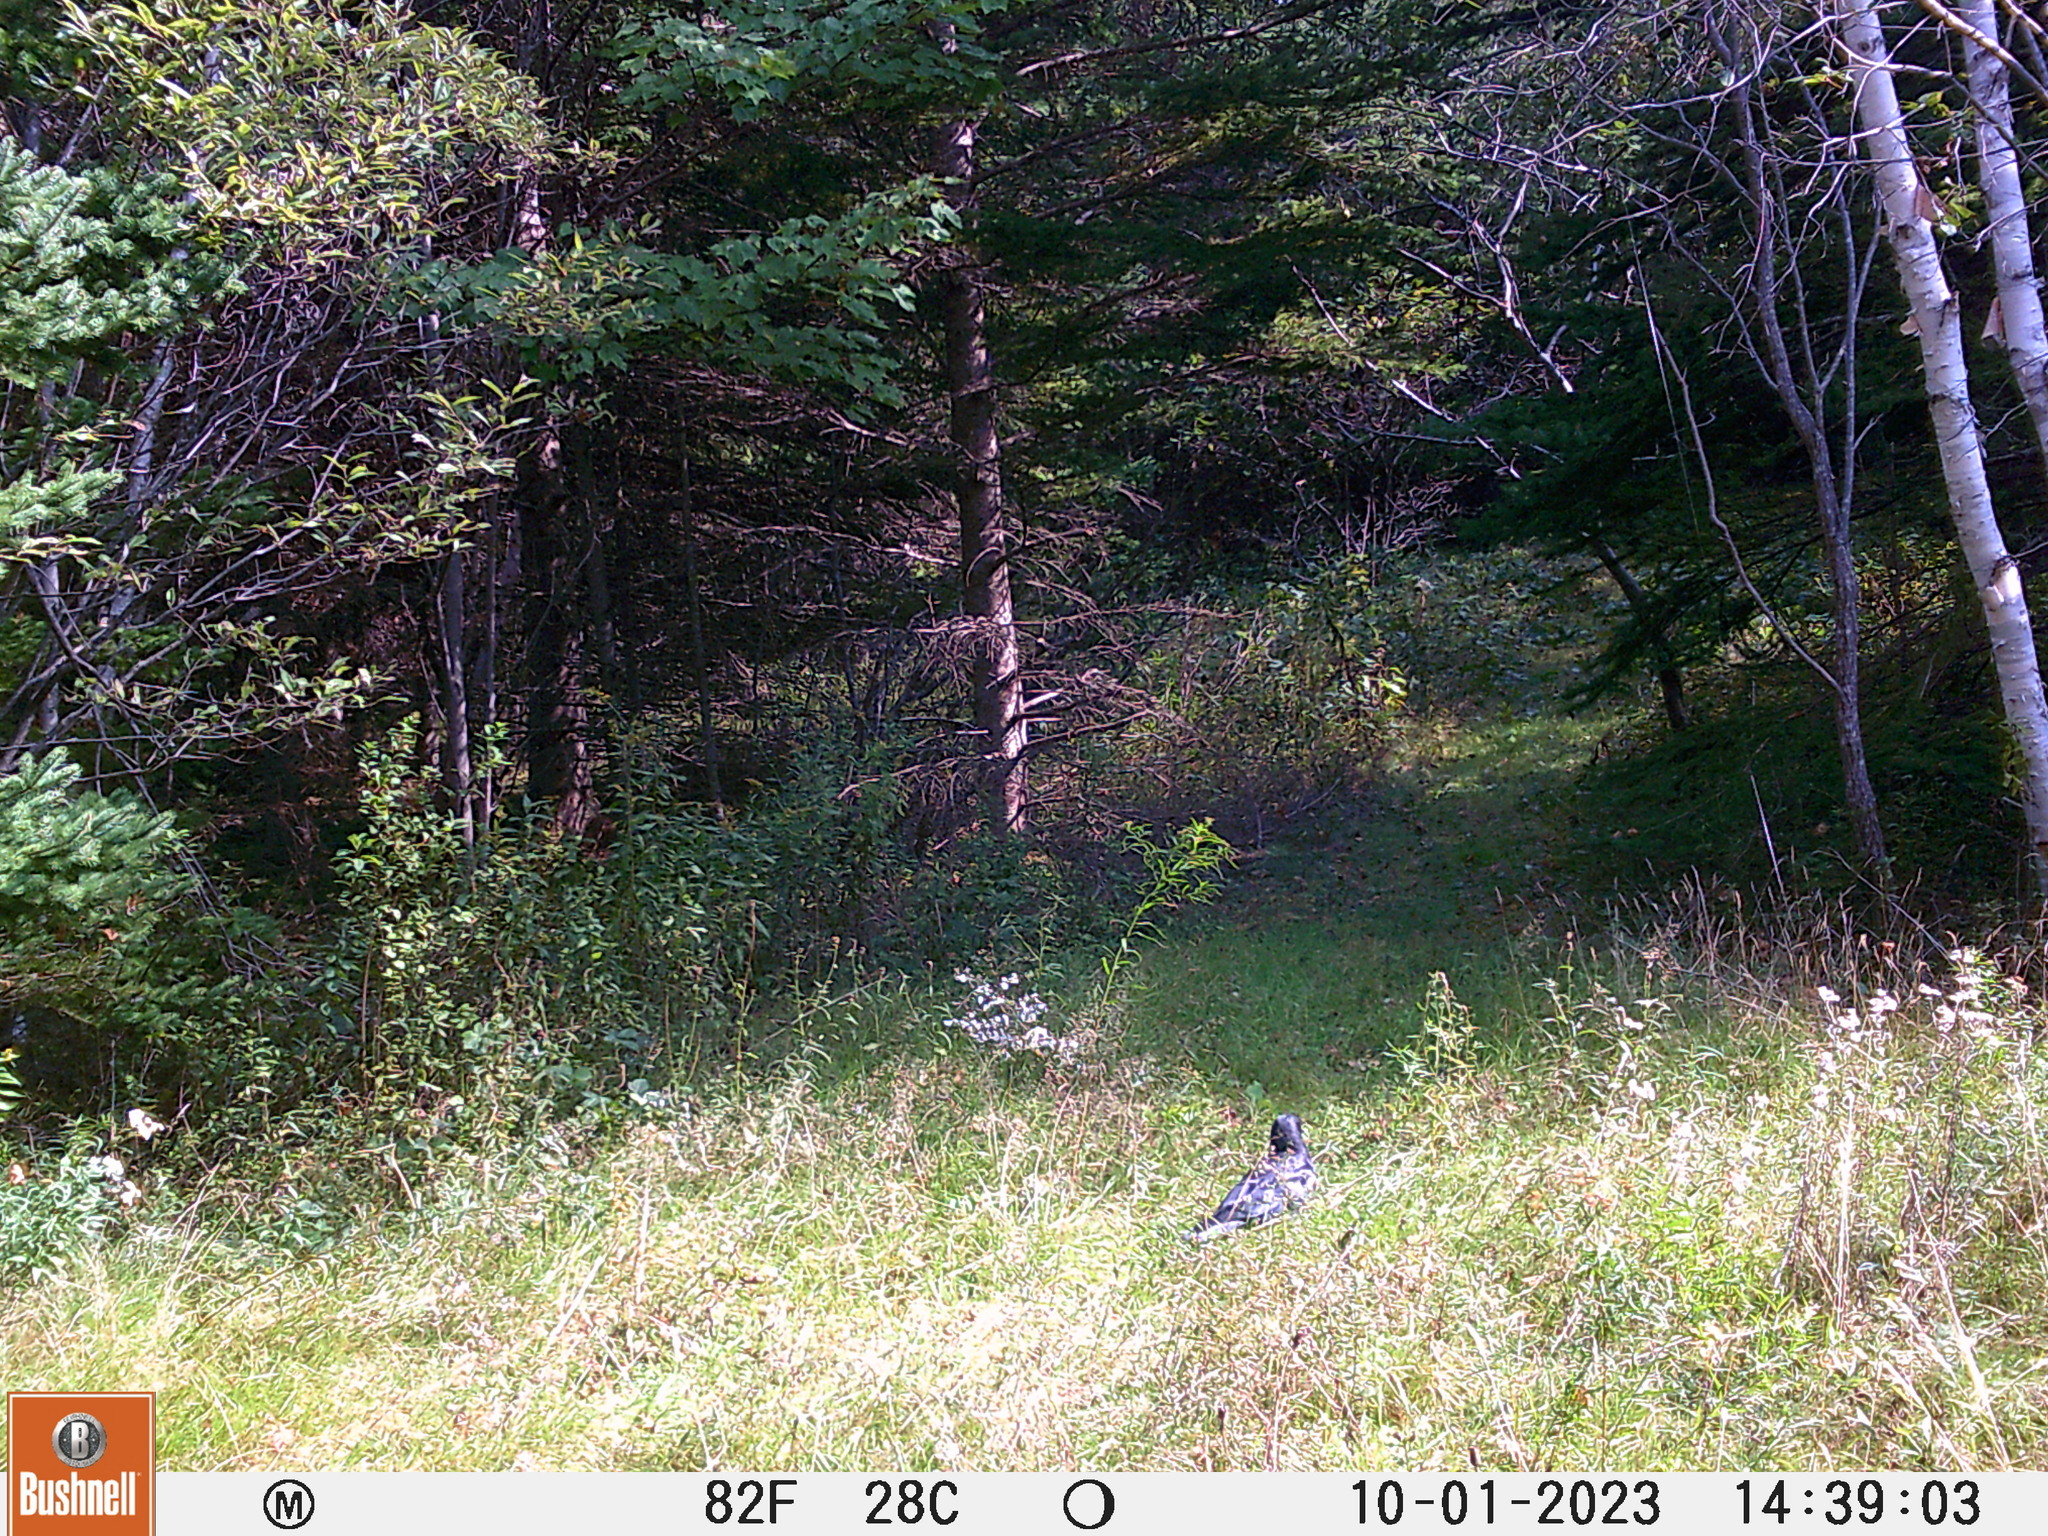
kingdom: Animalia
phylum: Chordata
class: Aves
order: Passeriformes
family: Corvidae
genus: Corvus
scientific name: Corvus brachyrhynchos
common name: American crow
